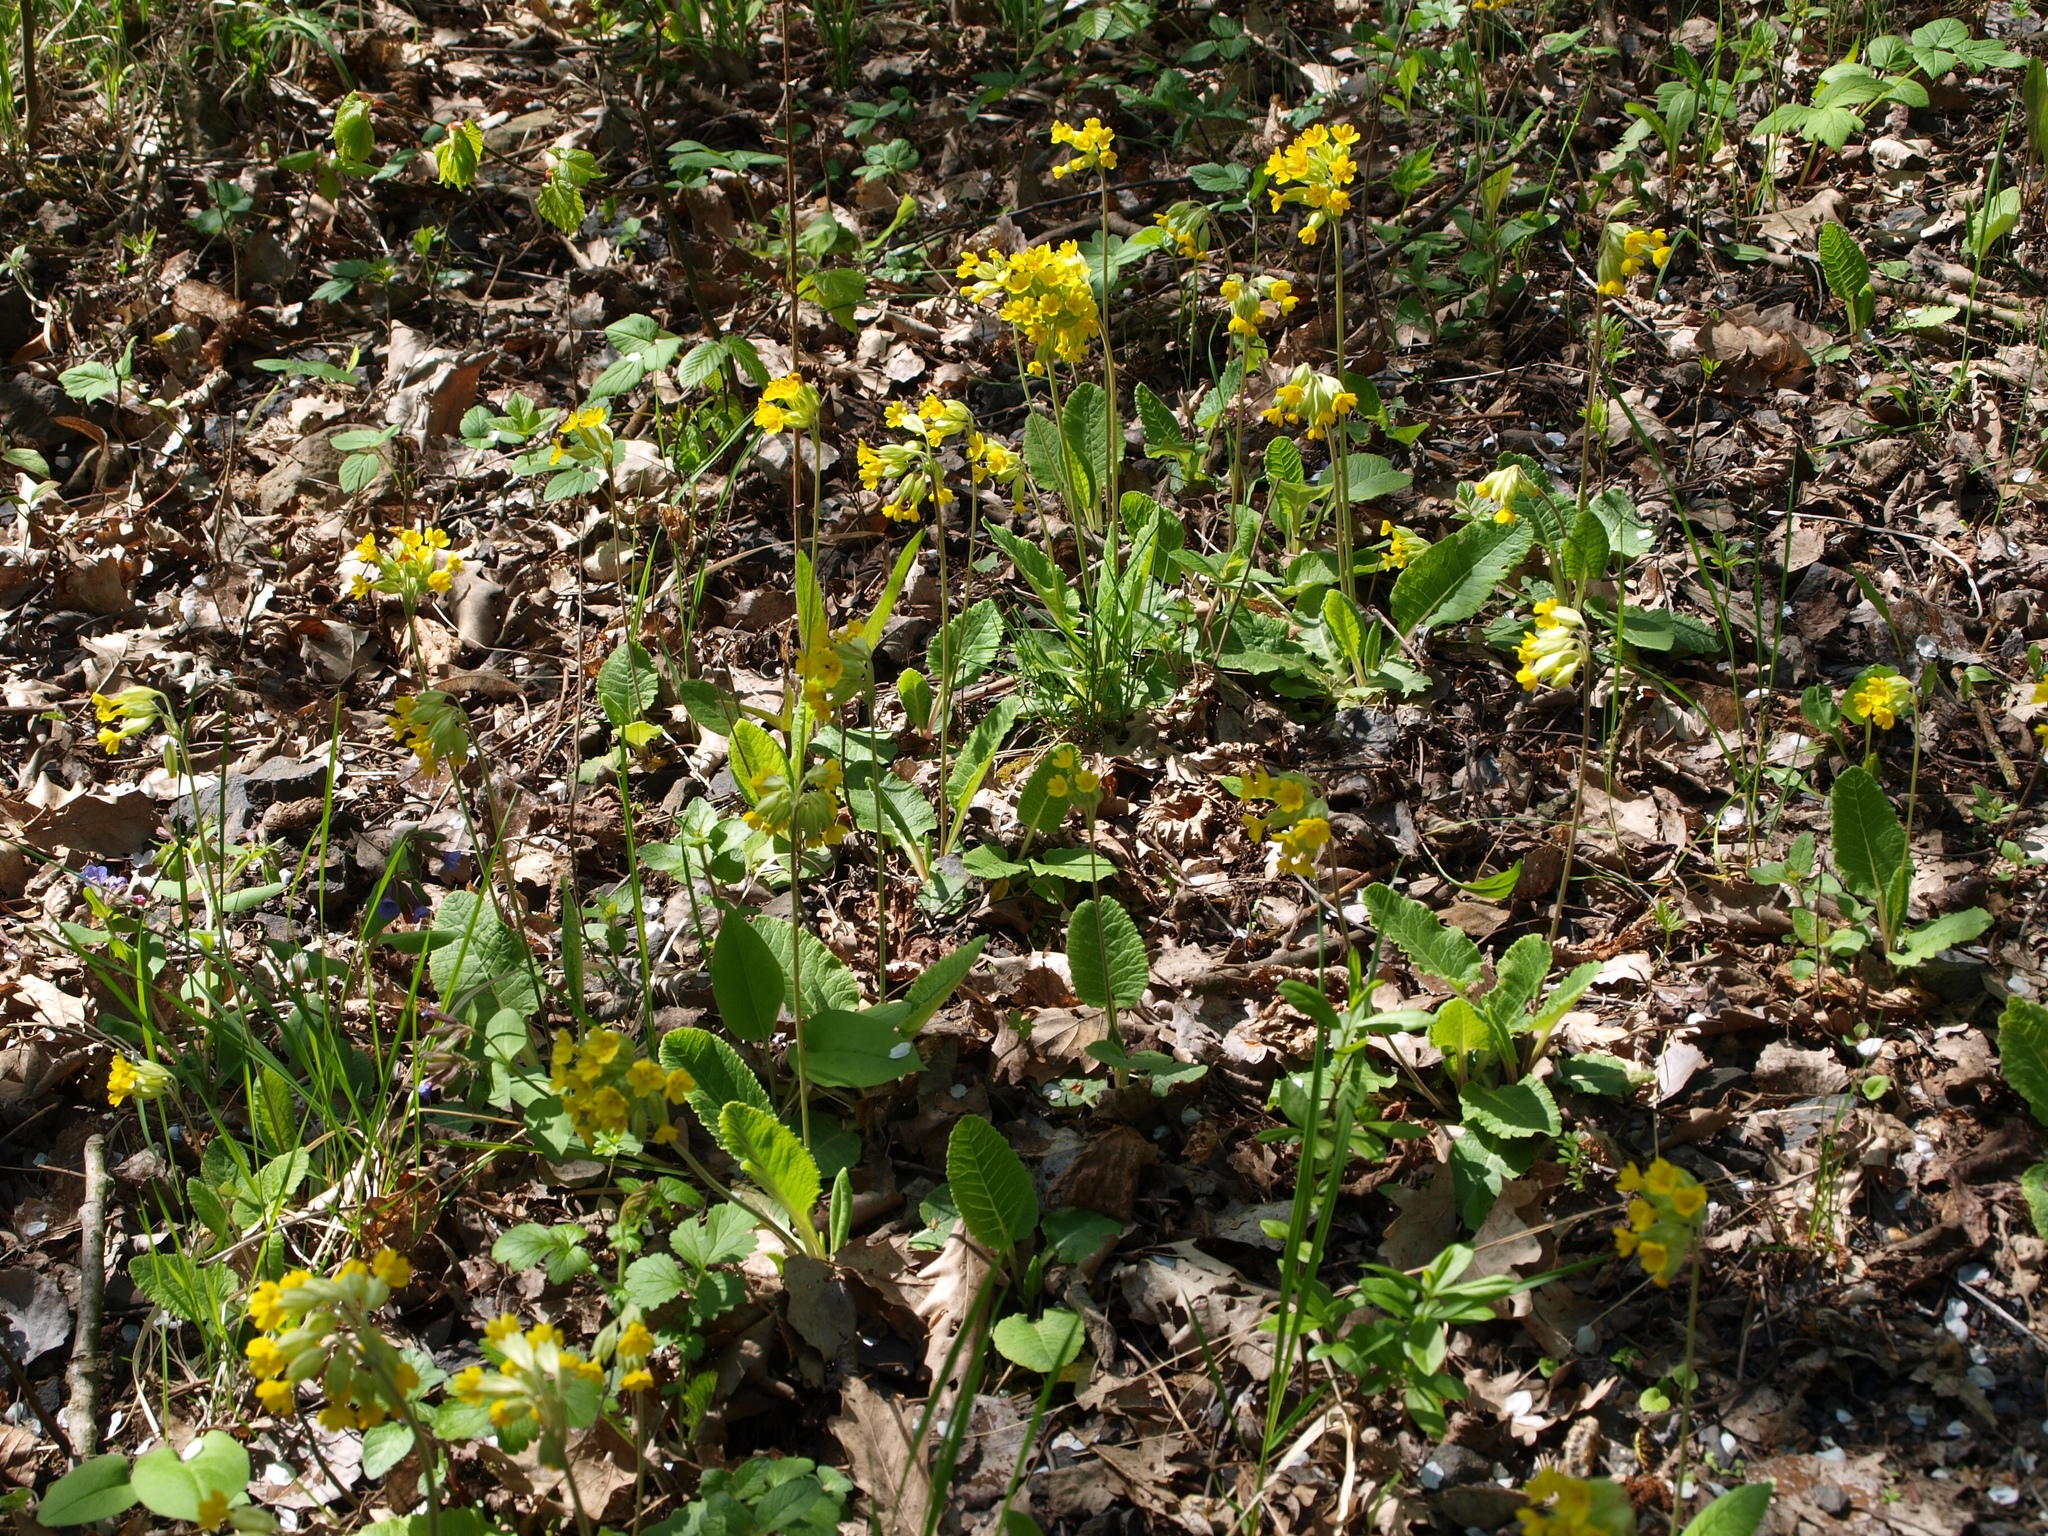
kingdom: Plantae
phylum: Tracheophyta
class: Magnoliopsida
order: Ericales
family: Primulaceae
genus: Primula
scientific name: Primula veris
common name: Cowslip
